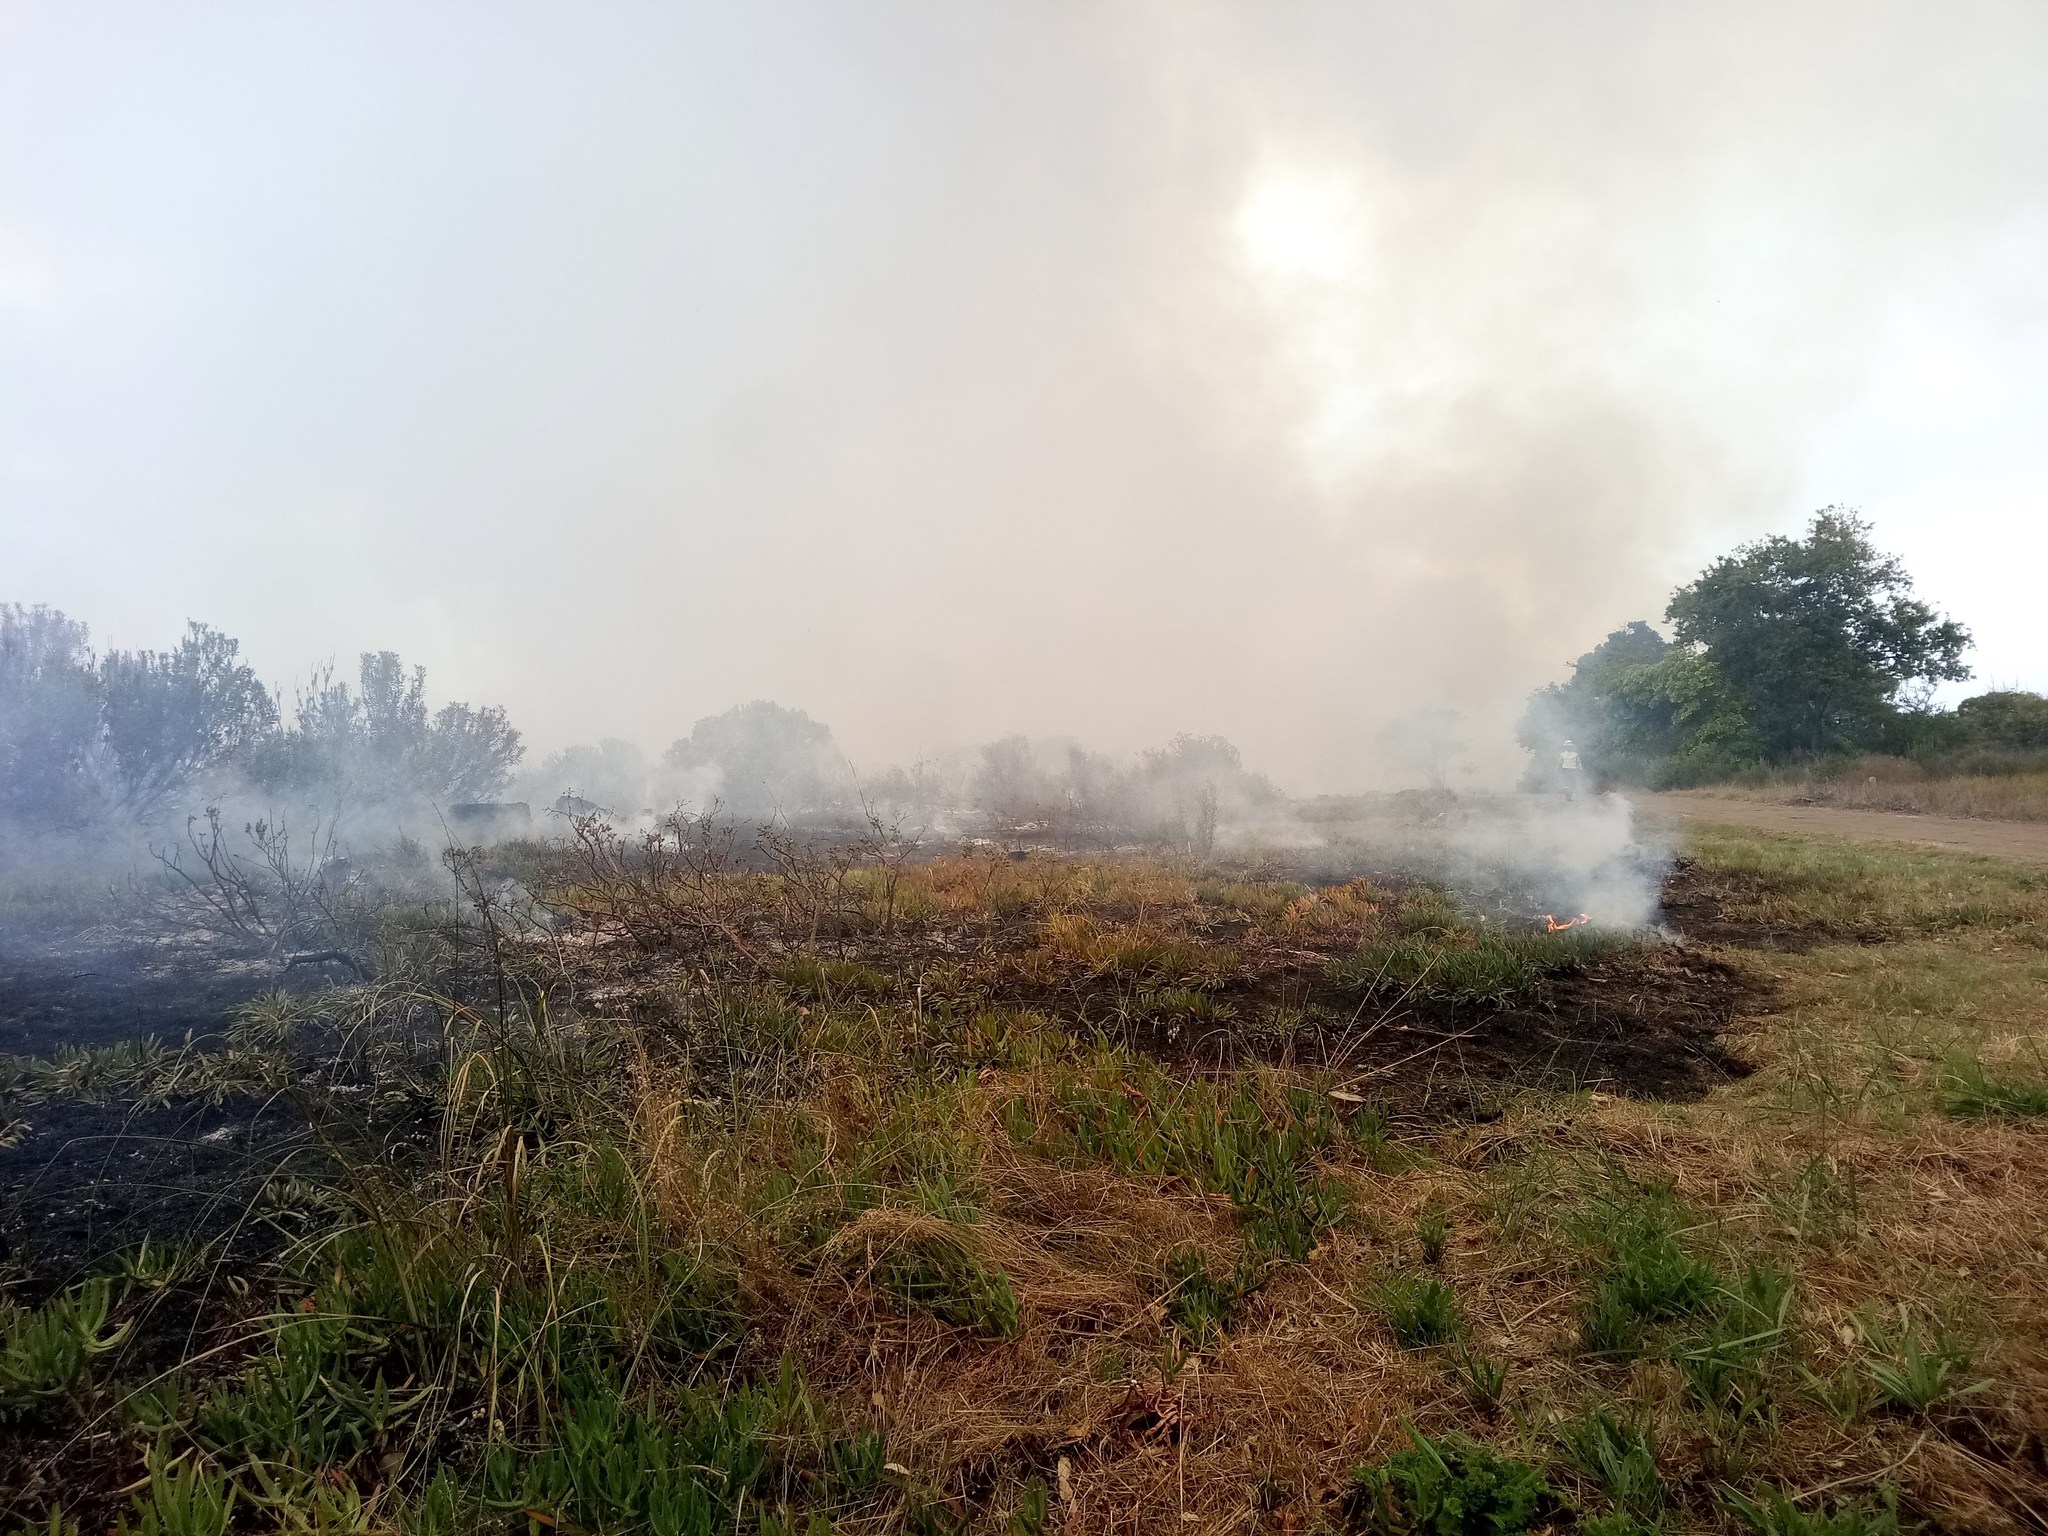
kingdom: Plantae
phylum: Tracheophyta
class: Magnoliopsida
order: Caryophyllales
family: Aizoaceae
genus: Carpobrotus
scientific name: Carpobrotus edulis
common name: Hottentot-fig
